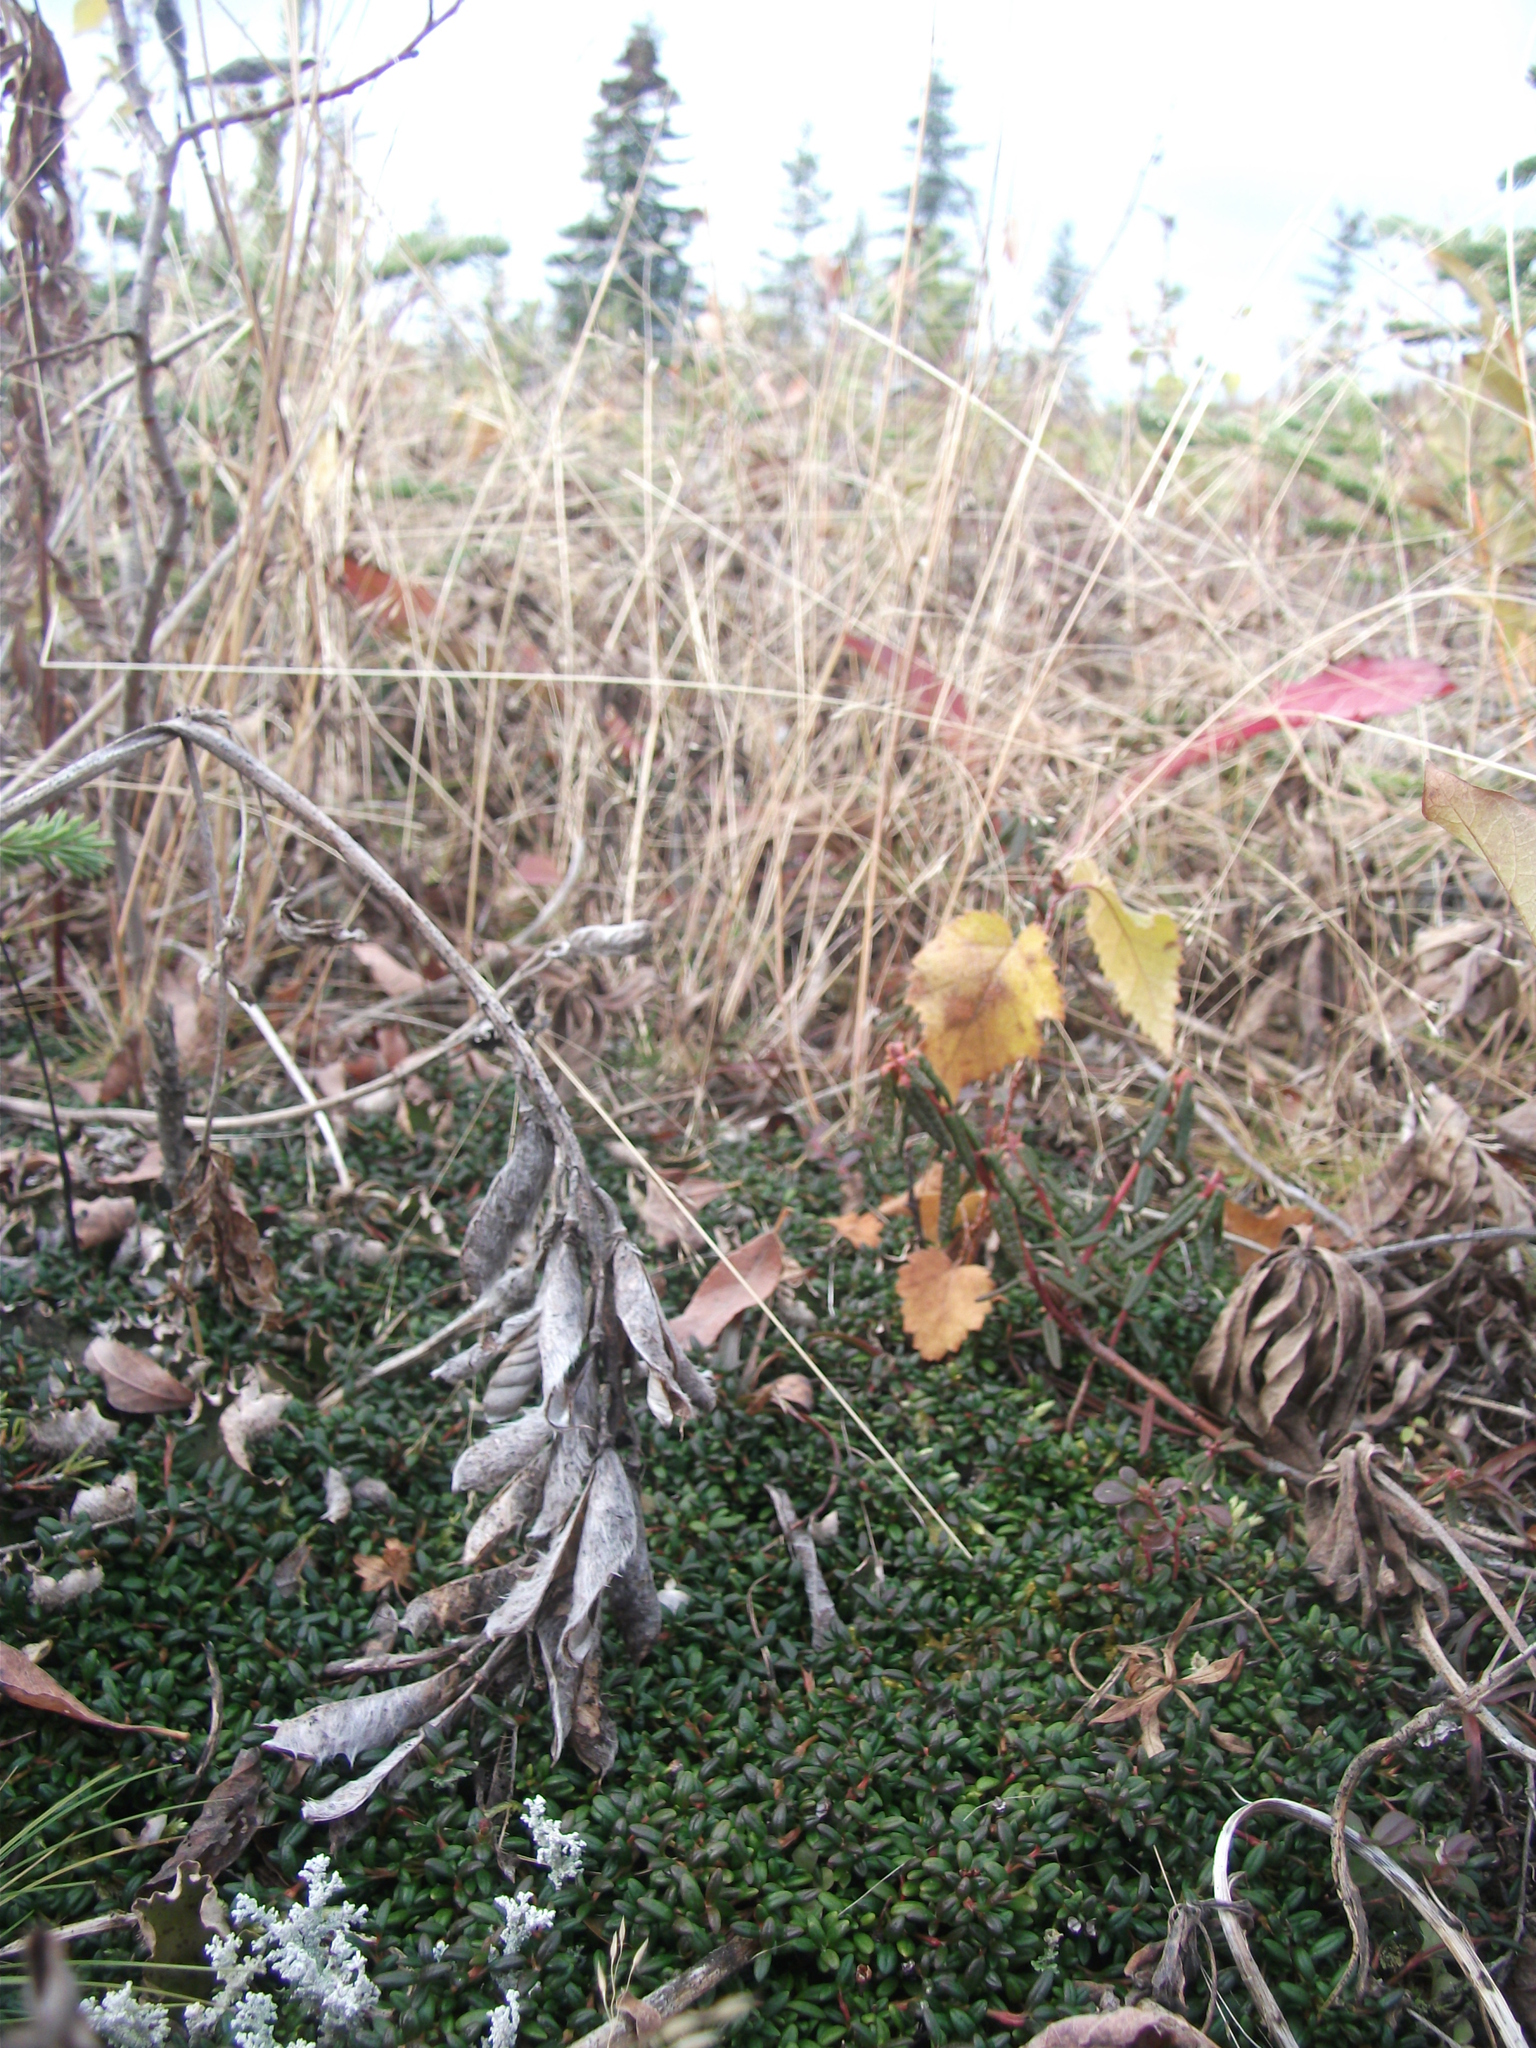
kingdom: Plantae
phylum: Tracheophyta
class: Magnoliopsida
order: Ericales
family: Ericaceae
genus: Kalmia
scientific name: Kalmia procumbens
